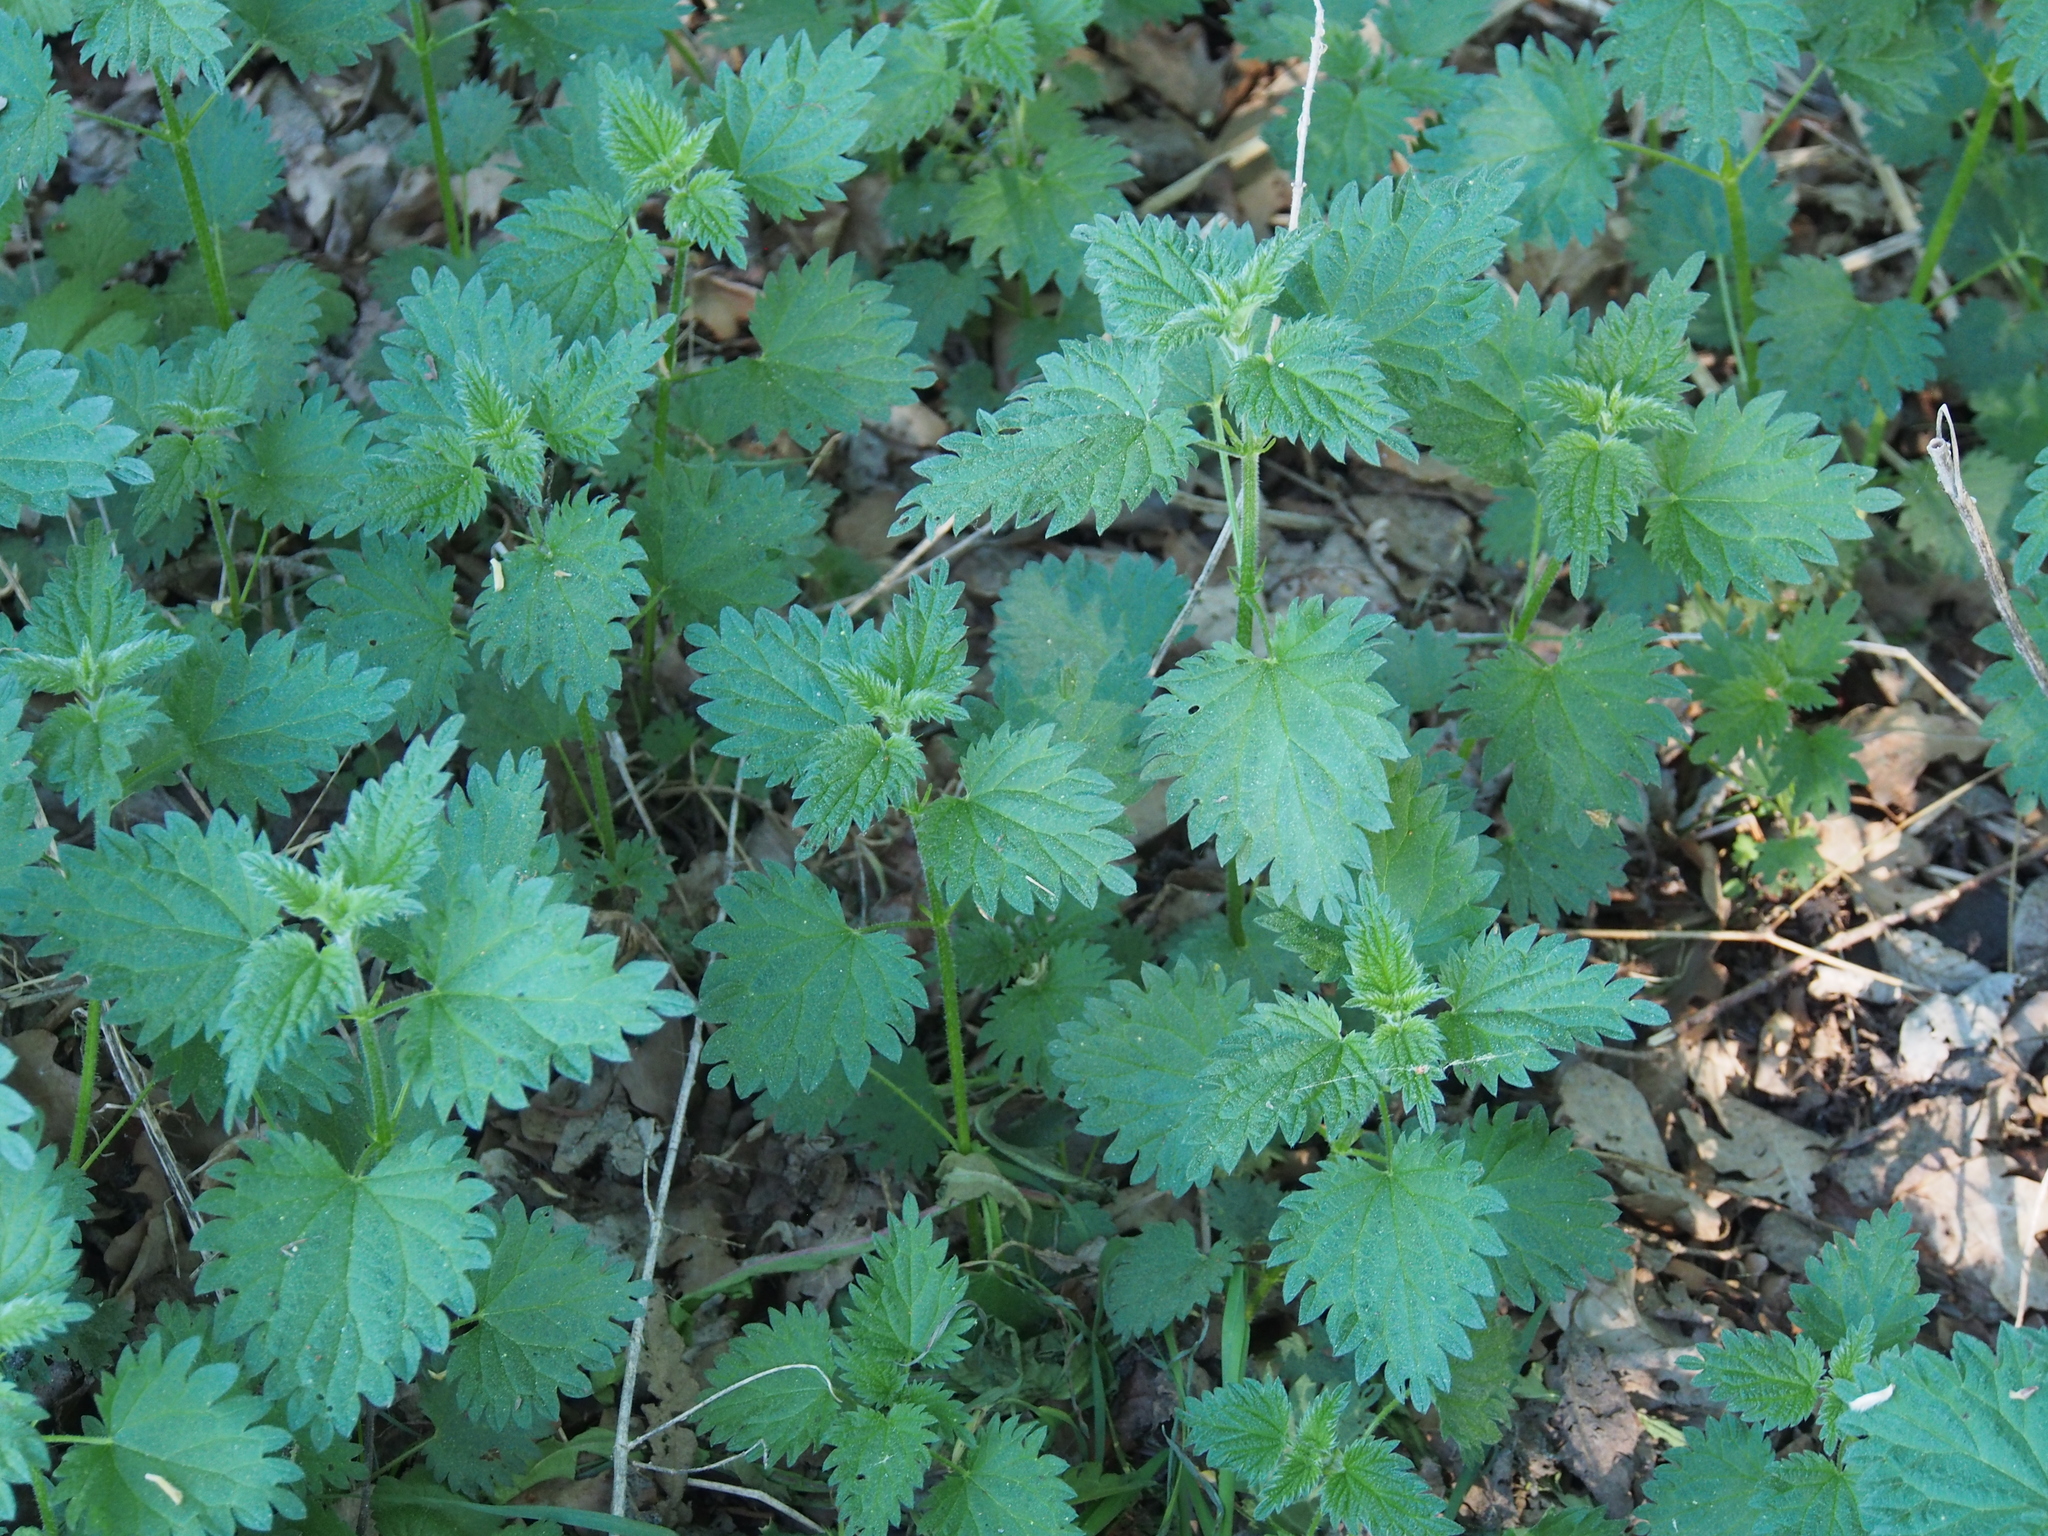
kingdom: Plantae
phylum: Tracheophyta
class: Magnoliopsida
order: Rosales
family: Urticaceae
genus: Urtica
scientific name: Urtica dioica
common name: Common nettle
